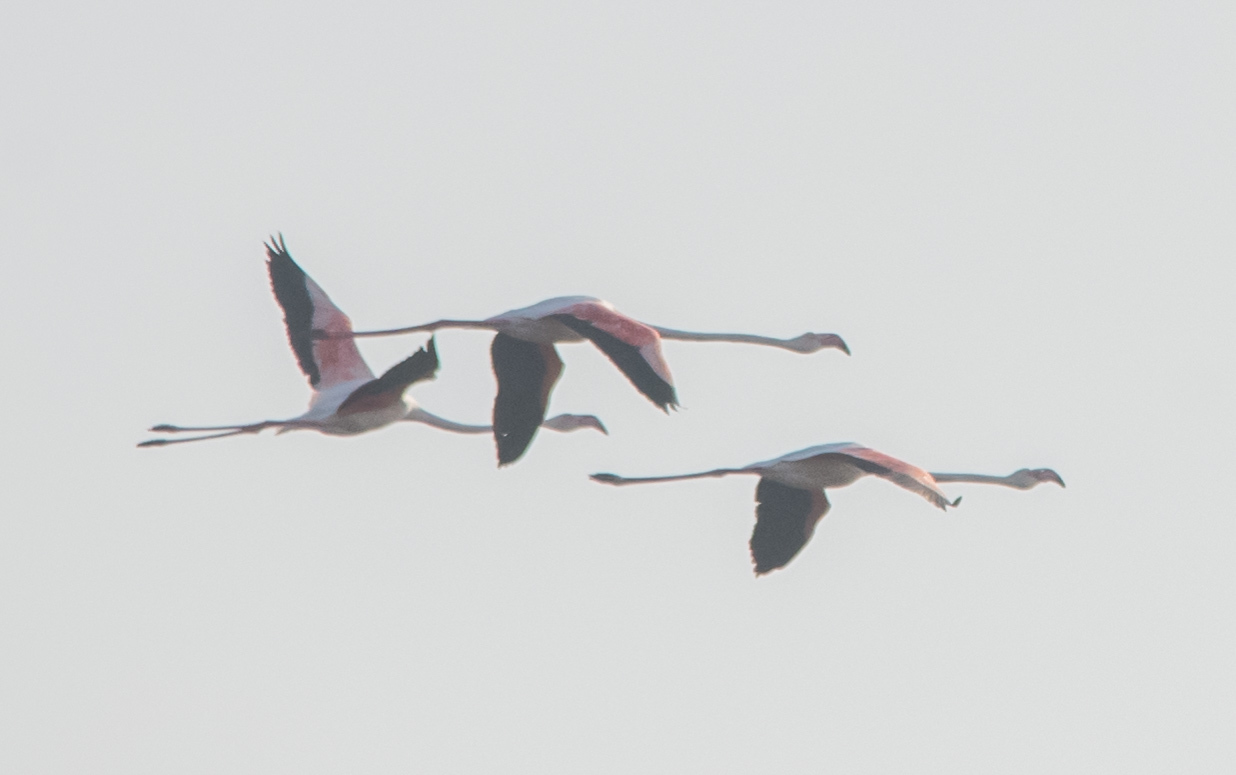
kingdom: Animalia
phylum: Chordata
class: Aves
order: Phoenicopteriformes
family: Phoenicopteridae
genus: Phoenicopterus
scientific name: Phoenicopterus roseus
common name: Greater flamingo
